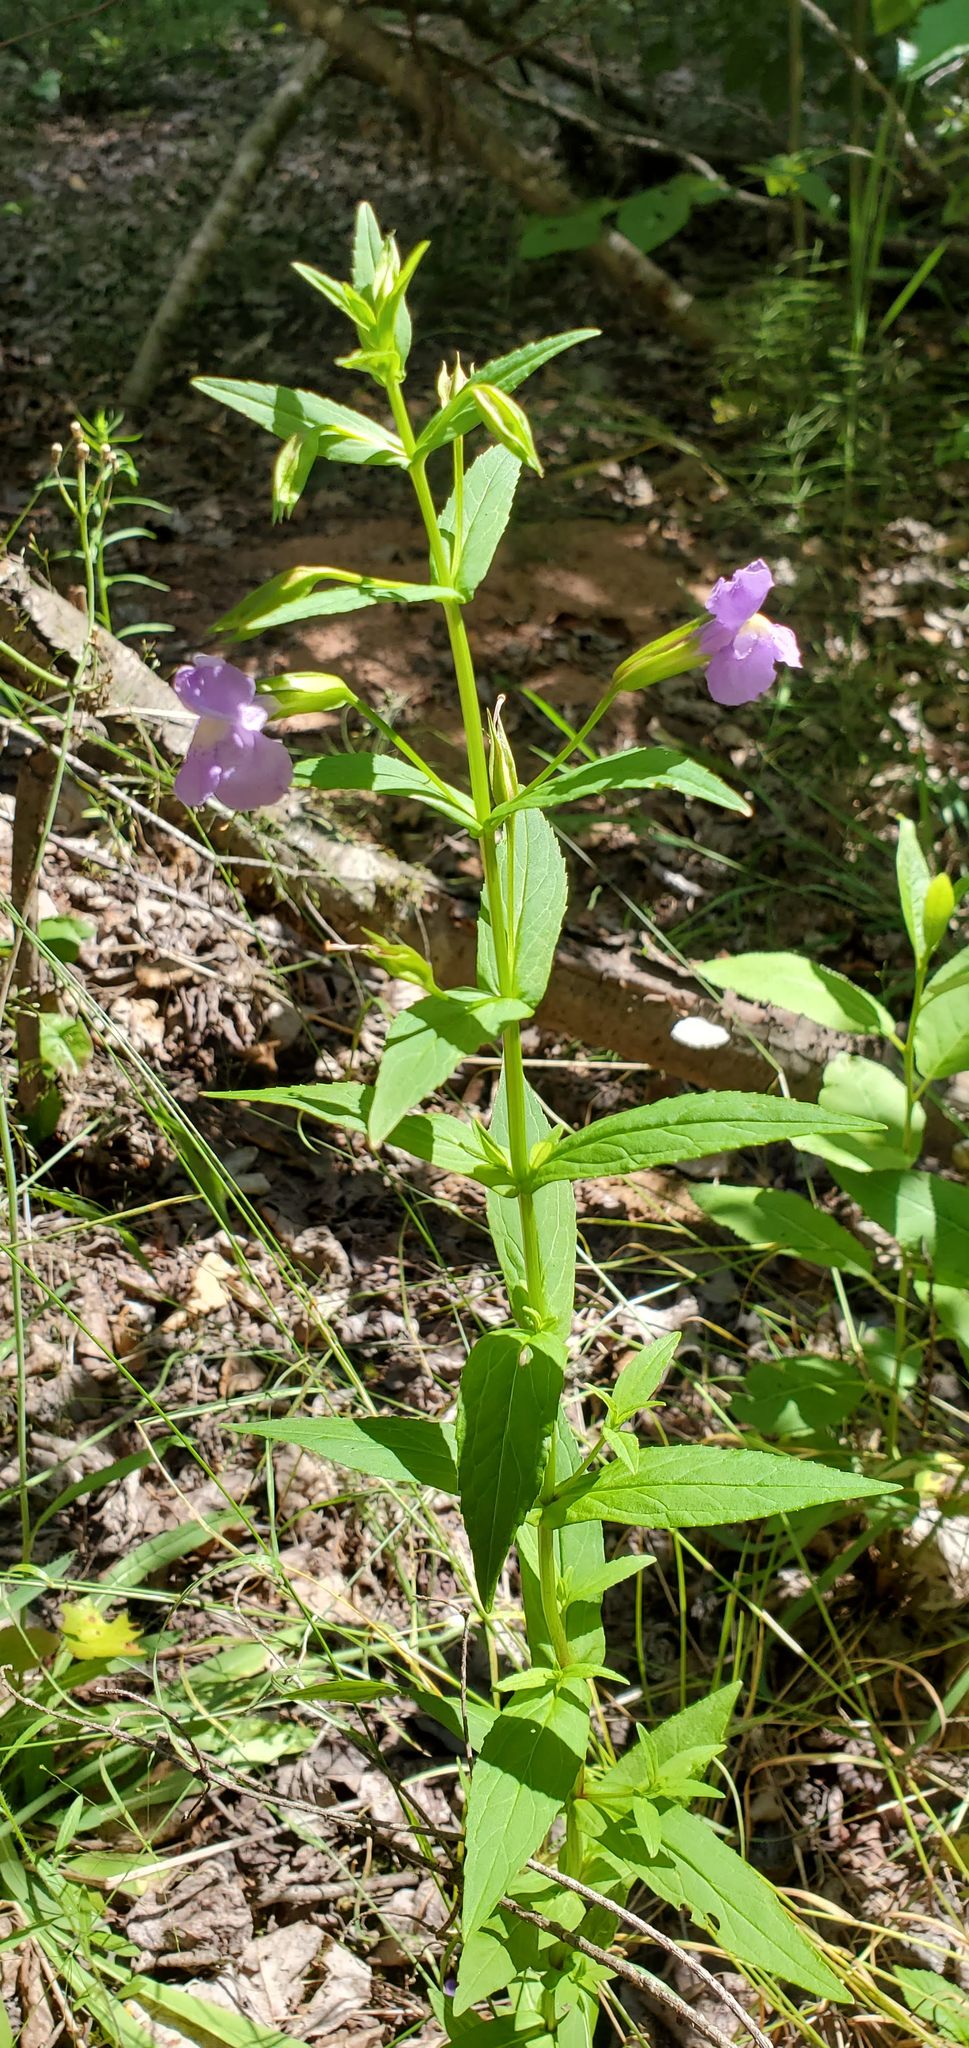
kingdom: Plantae
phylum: Tracheophyta
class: Magnoliopsida
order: Lamiales
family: Phrymaceae
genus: Mimulus
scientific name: Mimulus ringens
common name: Allegheny monkeyflower
